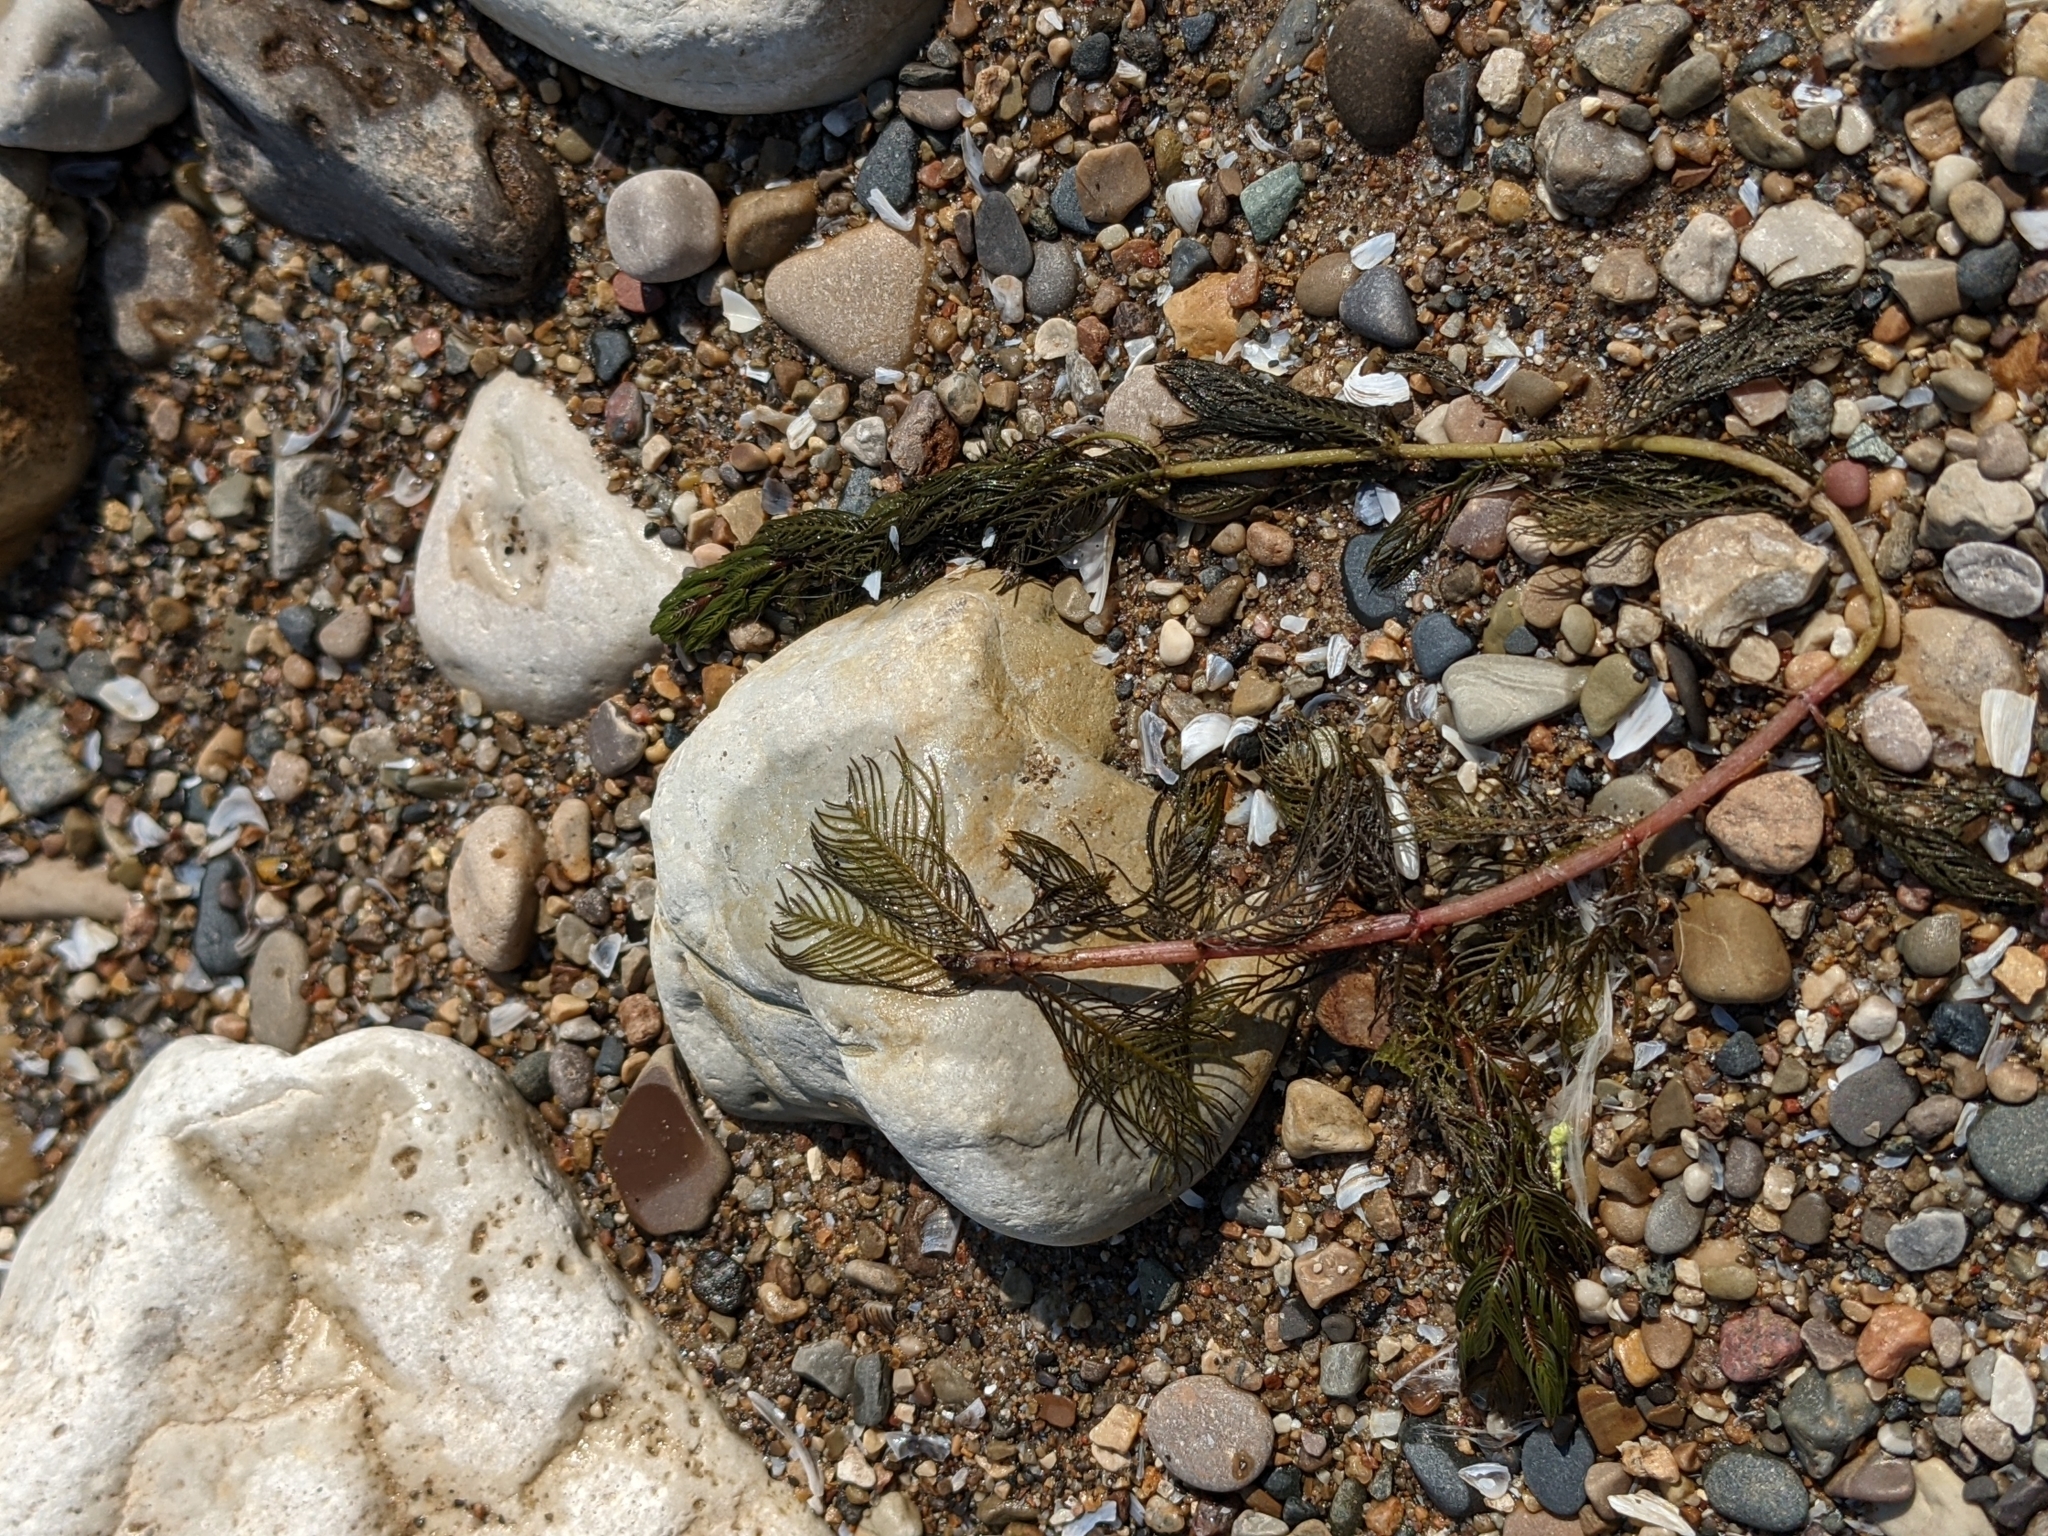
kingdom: Plantae
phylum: Tracheophyta
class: Magnoliopsida
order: Saxifragales
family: Haloragaceae
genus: Myriophyllum
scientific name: Myriophyllum spicatum
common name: Spiked water-milfoil
